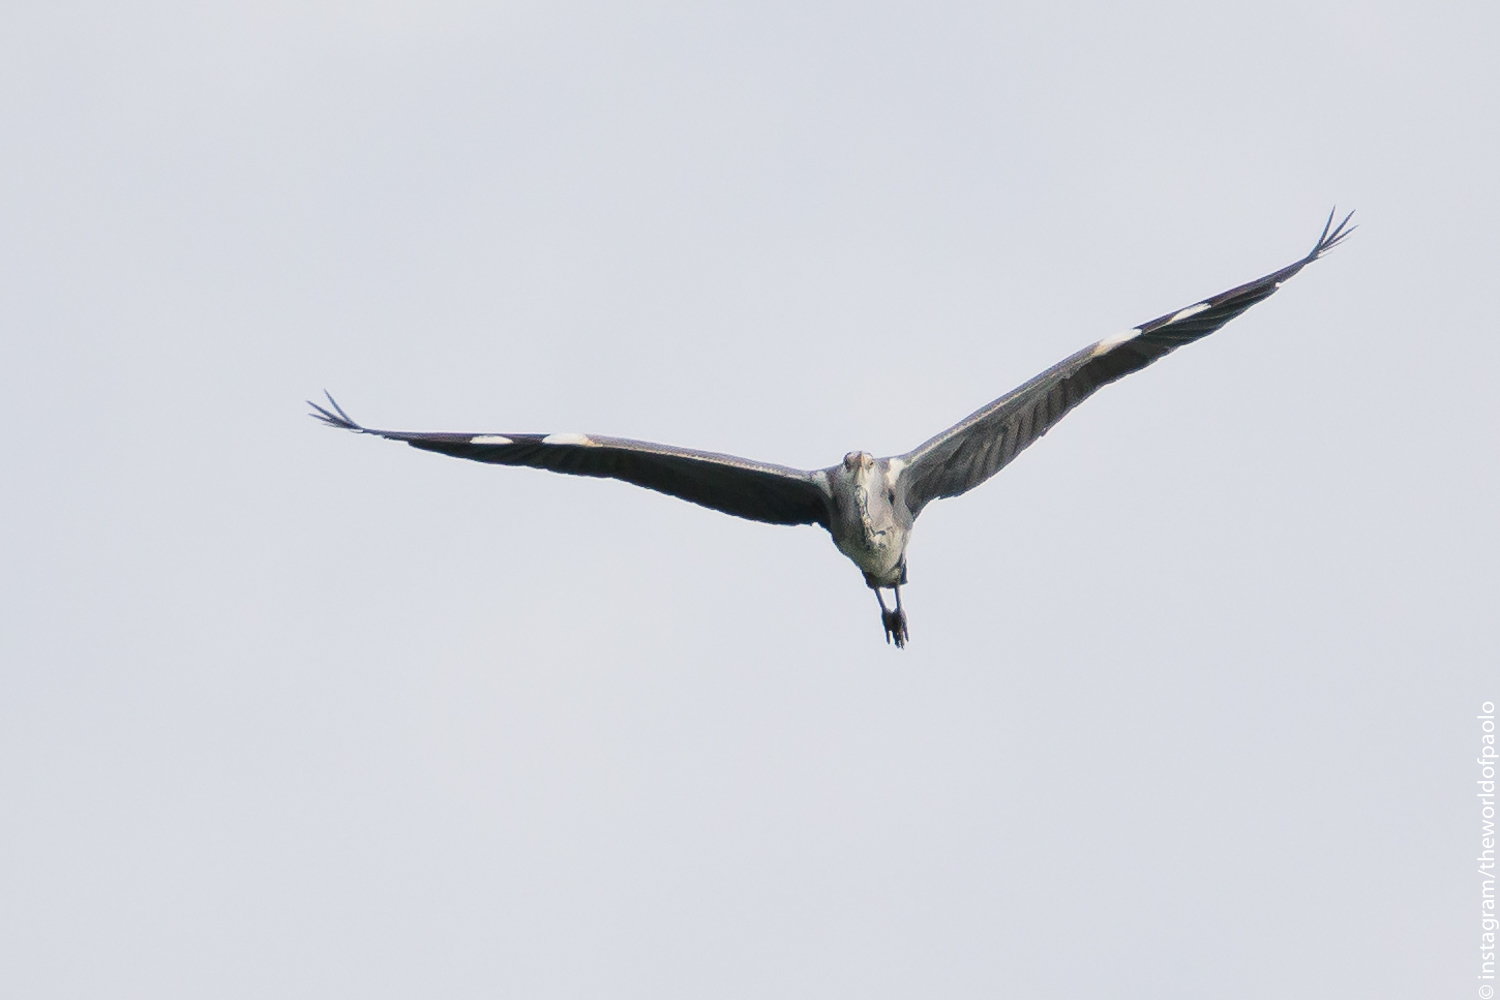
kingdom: Animalia
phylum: Chordata
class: Aves
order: Pelecaniformes
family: Ardeidae
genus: Ardea
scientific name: Ardea cinerea
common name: Grey heron
